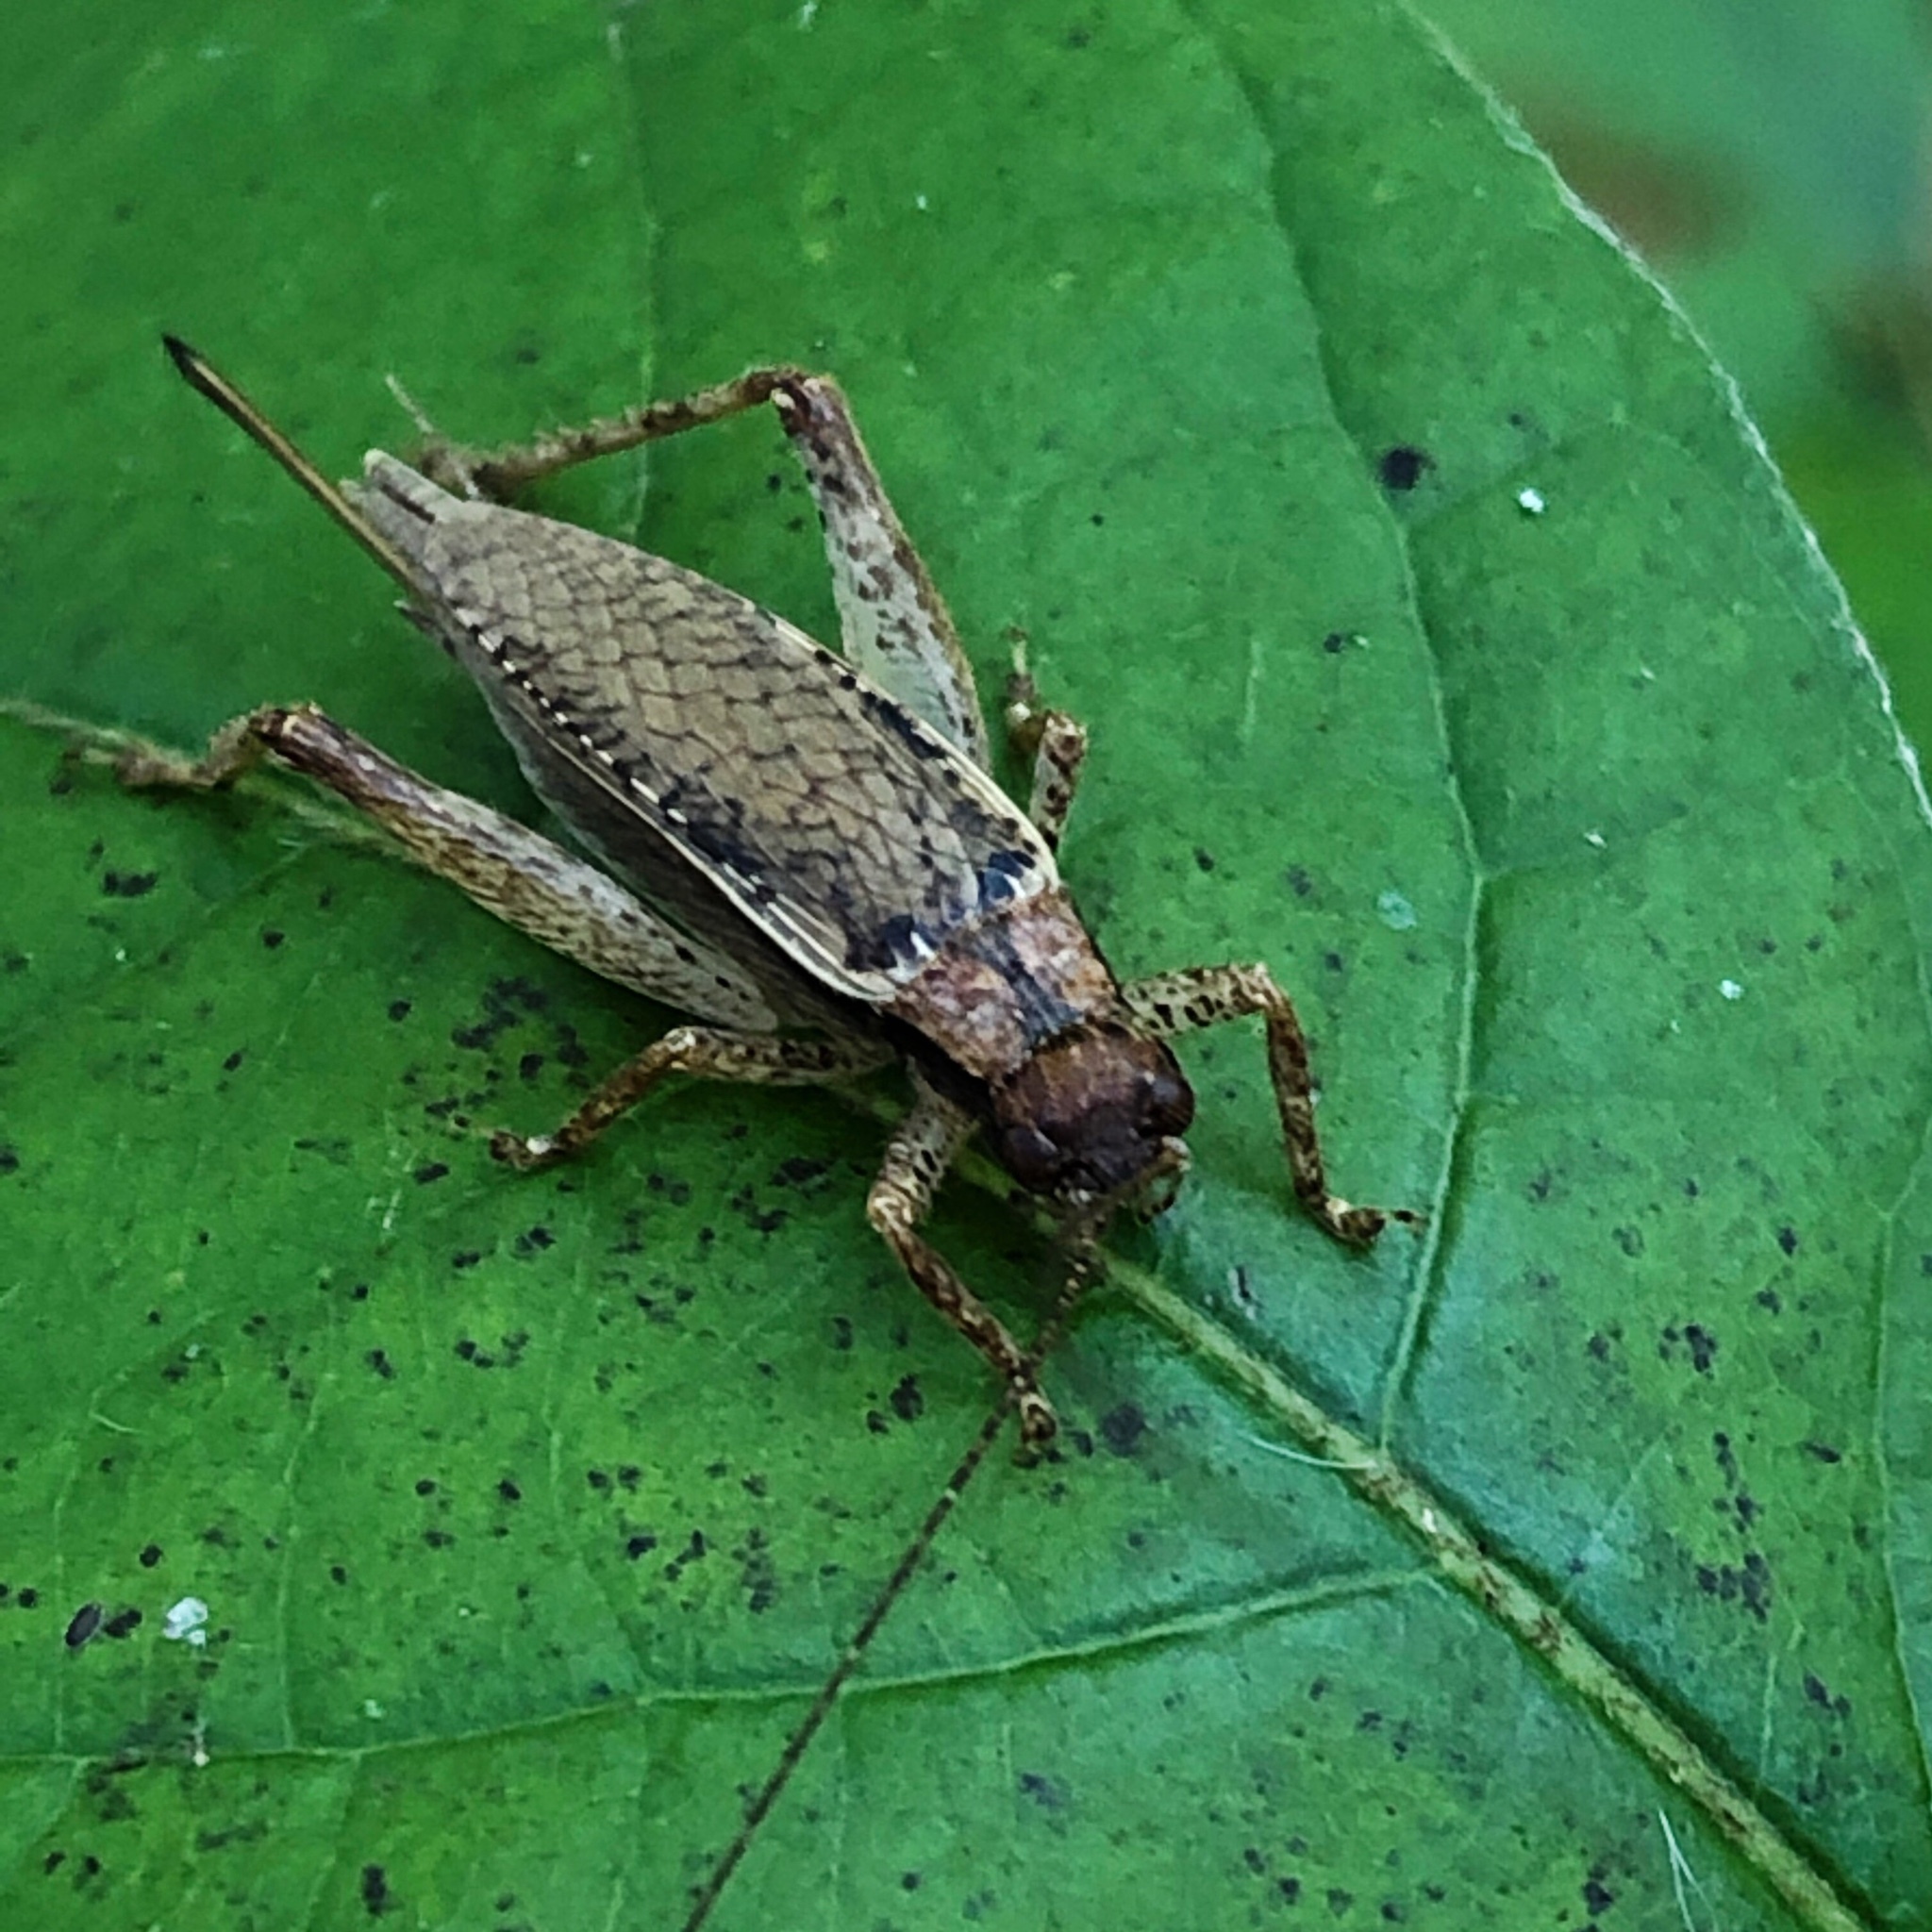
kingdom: Animalia
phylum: Arthropoda
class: Insecta
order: Orthoptera
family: Gryllidae
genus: Hapithus
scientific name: Hapithus saltator
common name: Jumping bush cricket
